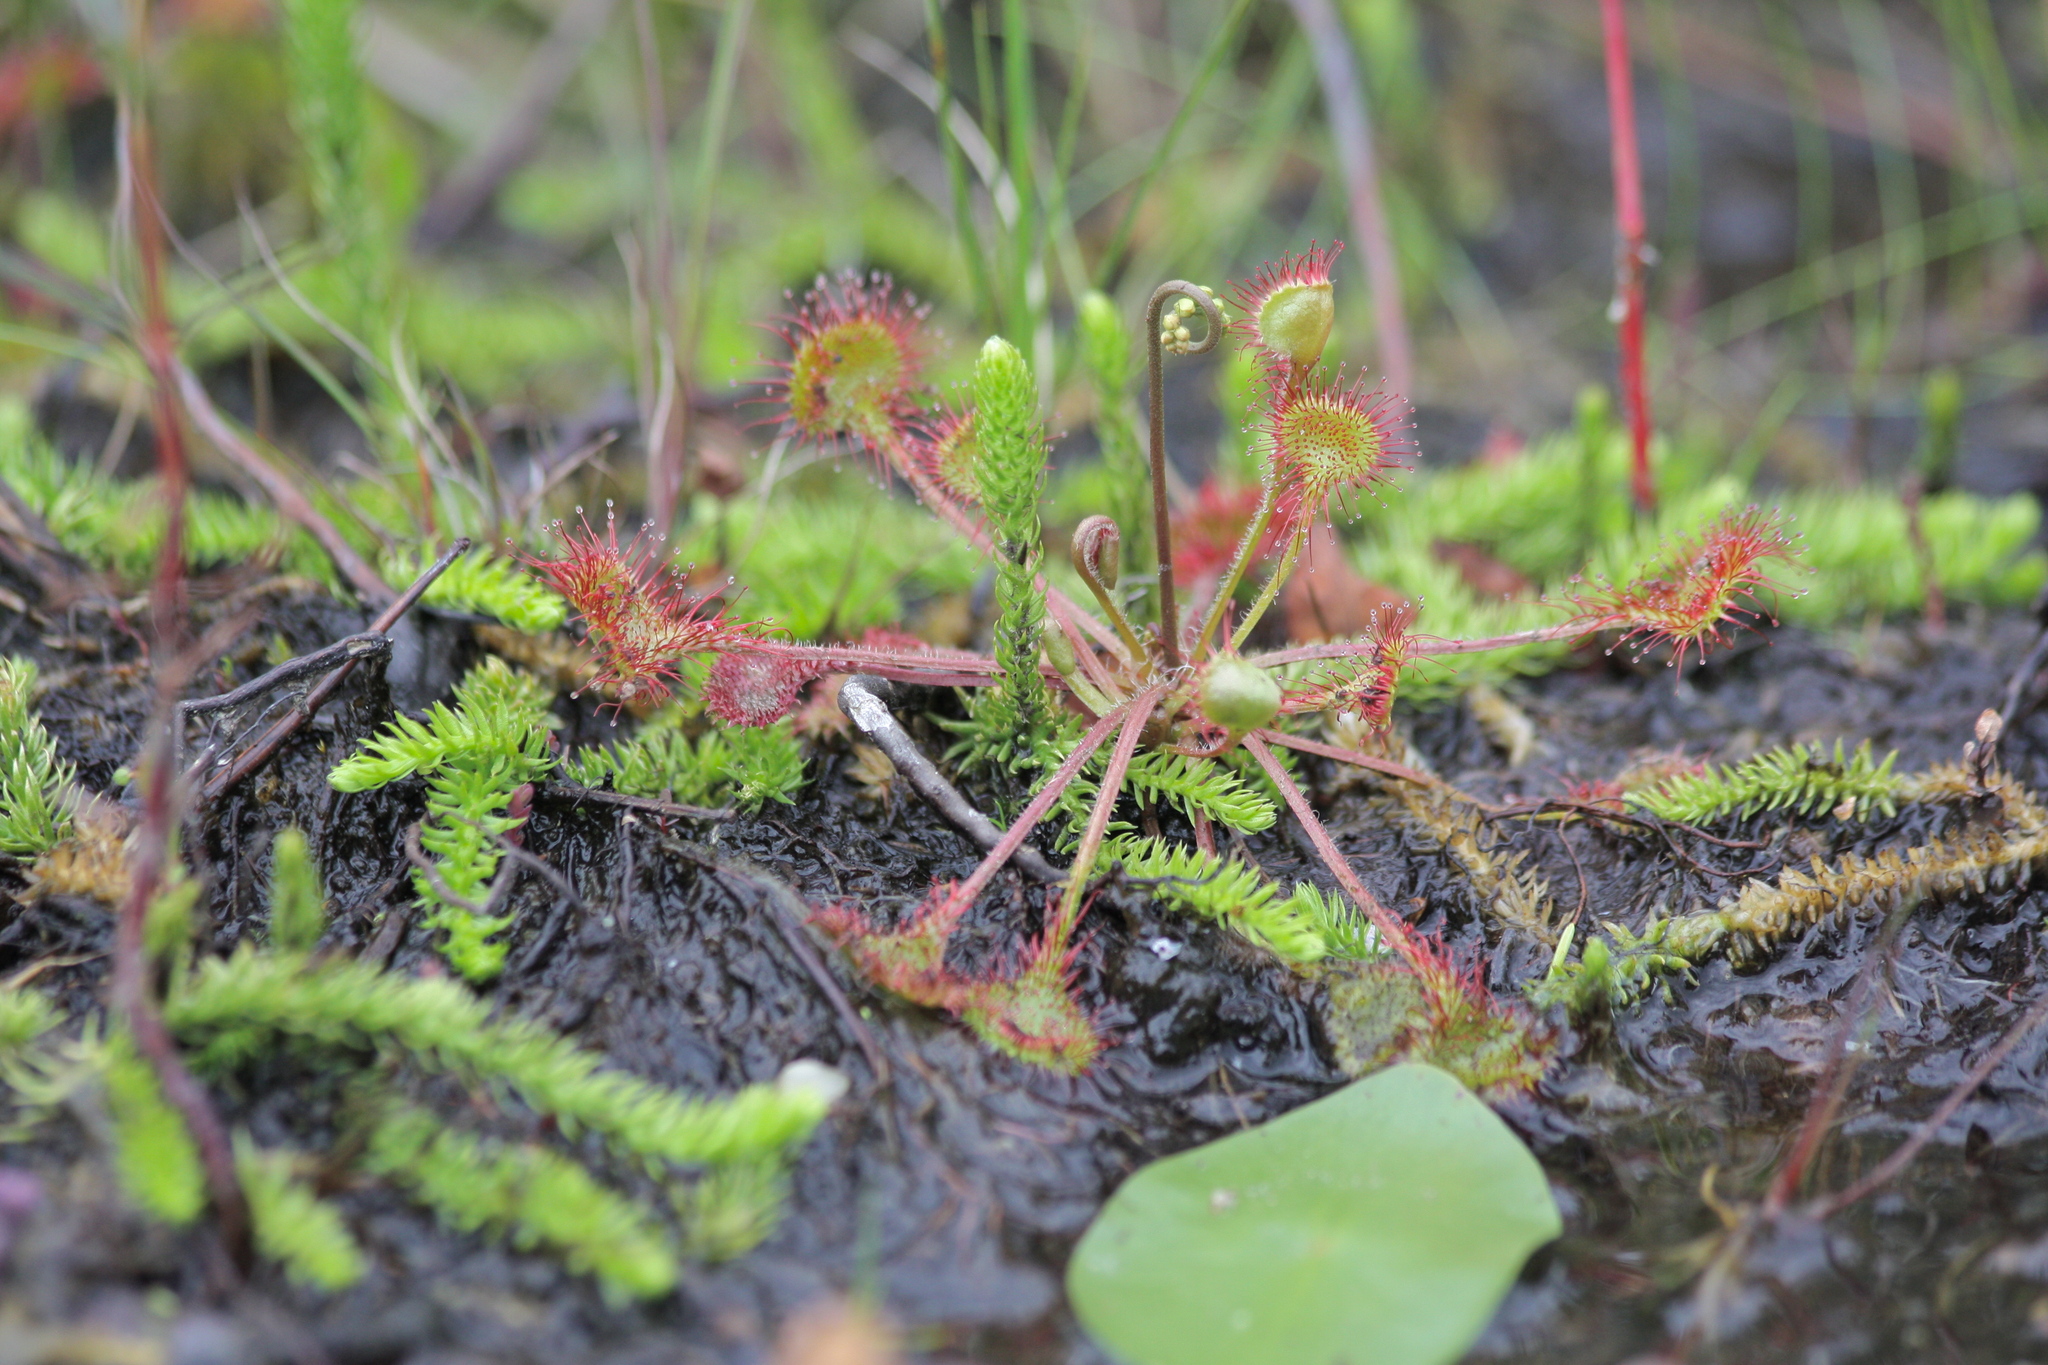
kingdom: Plantae
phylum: Tracheophyta
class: Lycopodiopsida
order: Lycopodiales
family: Lycopodiaceae
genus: Lycopodiella
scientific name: Lycopodiella inundata
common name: Marsh clubmoss
